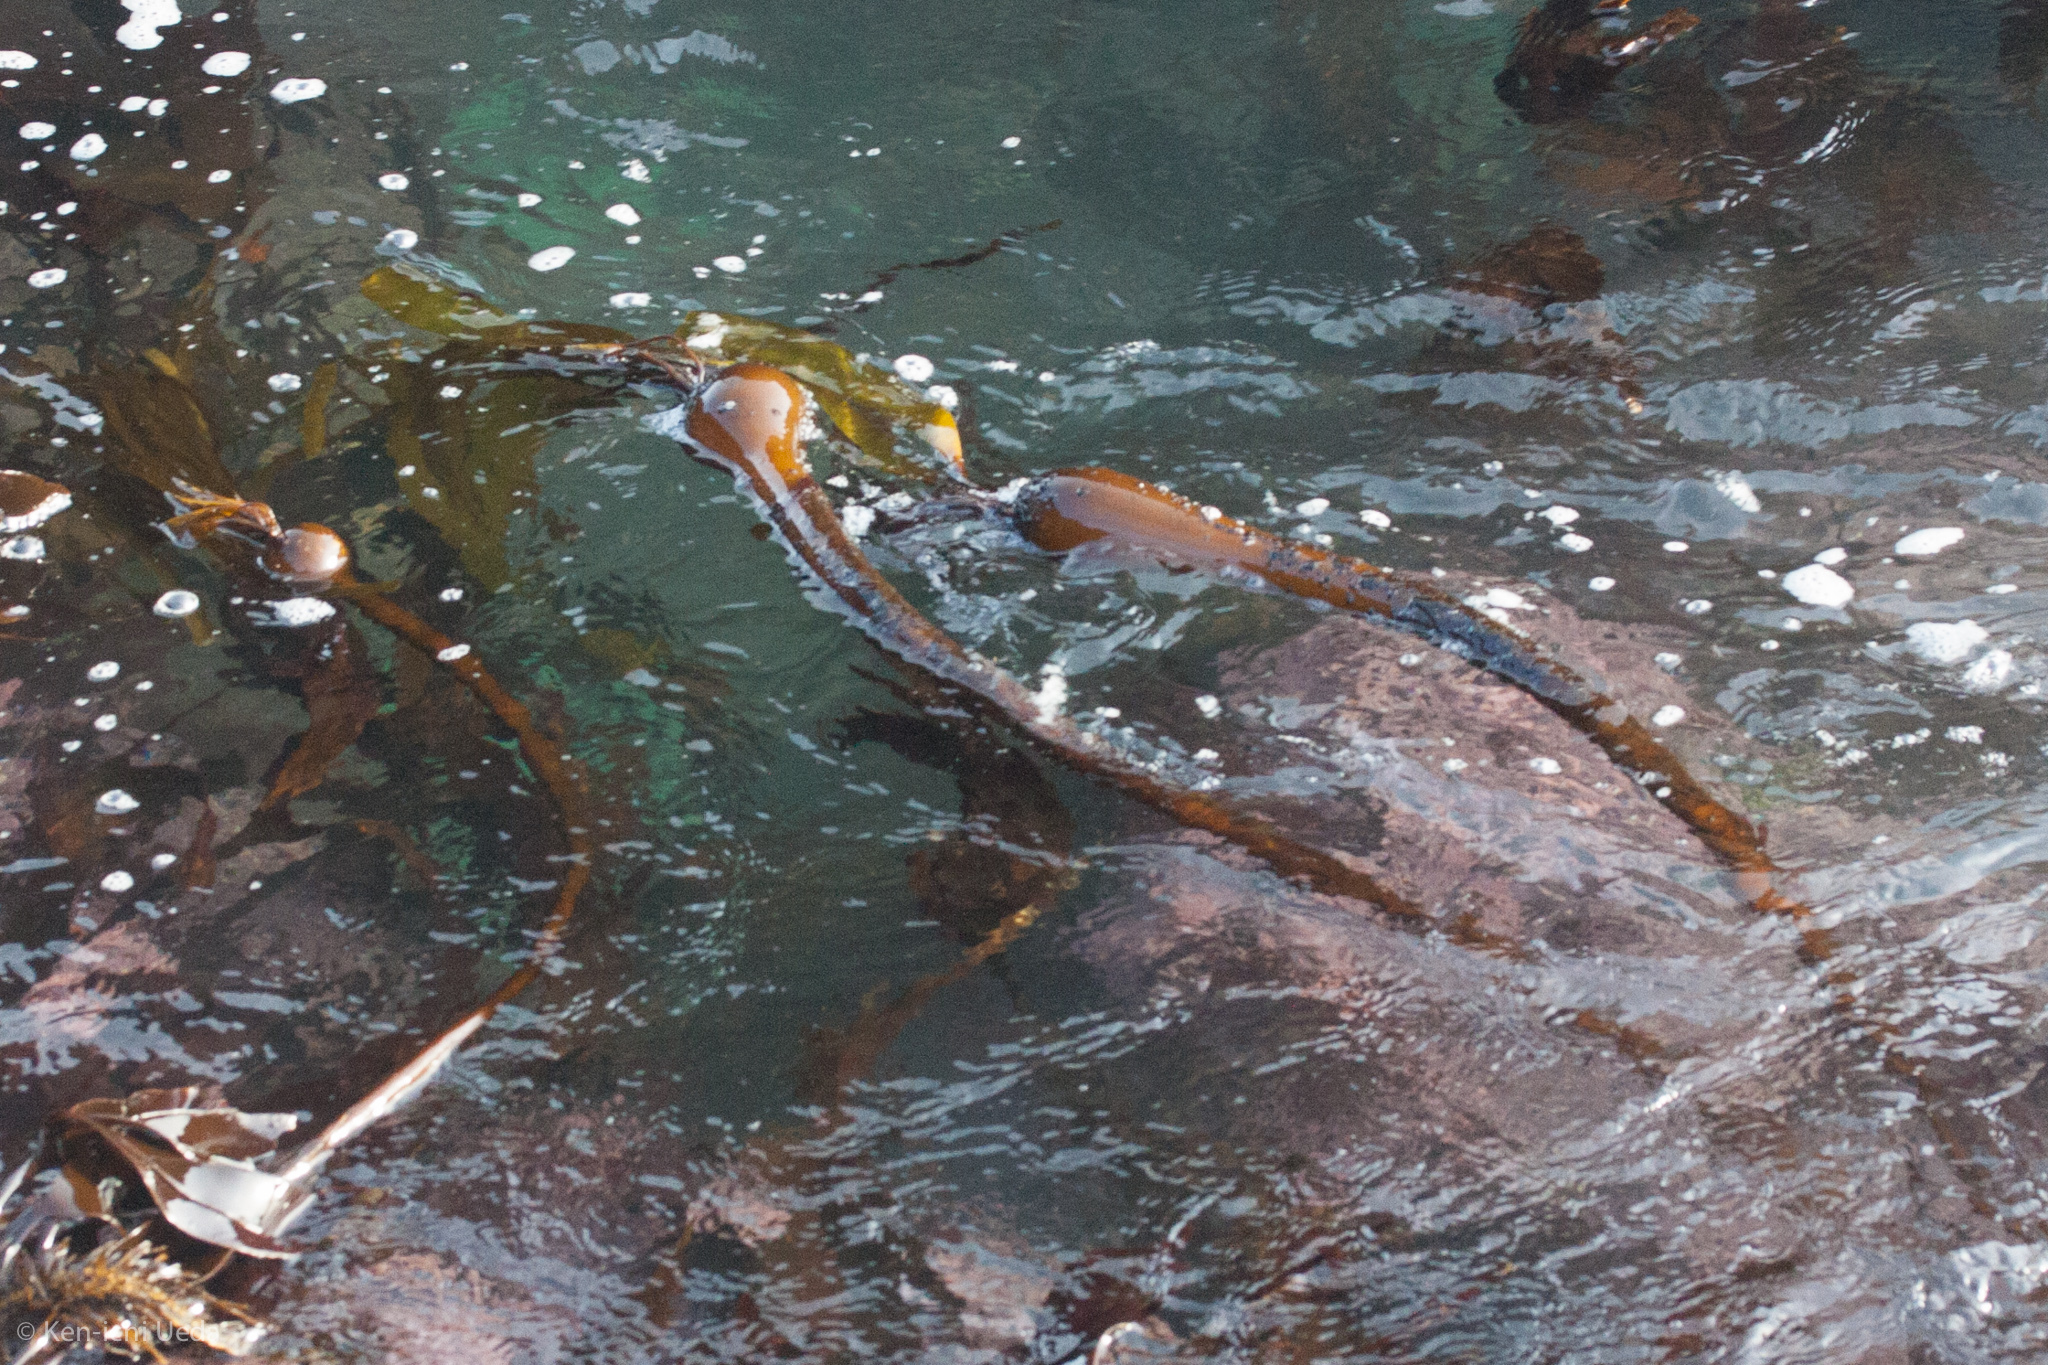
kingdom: Chromista
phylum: Ochrophyta
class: Phaeophyceae
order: Laminariales
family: Laminariaceae
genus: Nereocystis
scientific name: Nereocystis luetkeana
